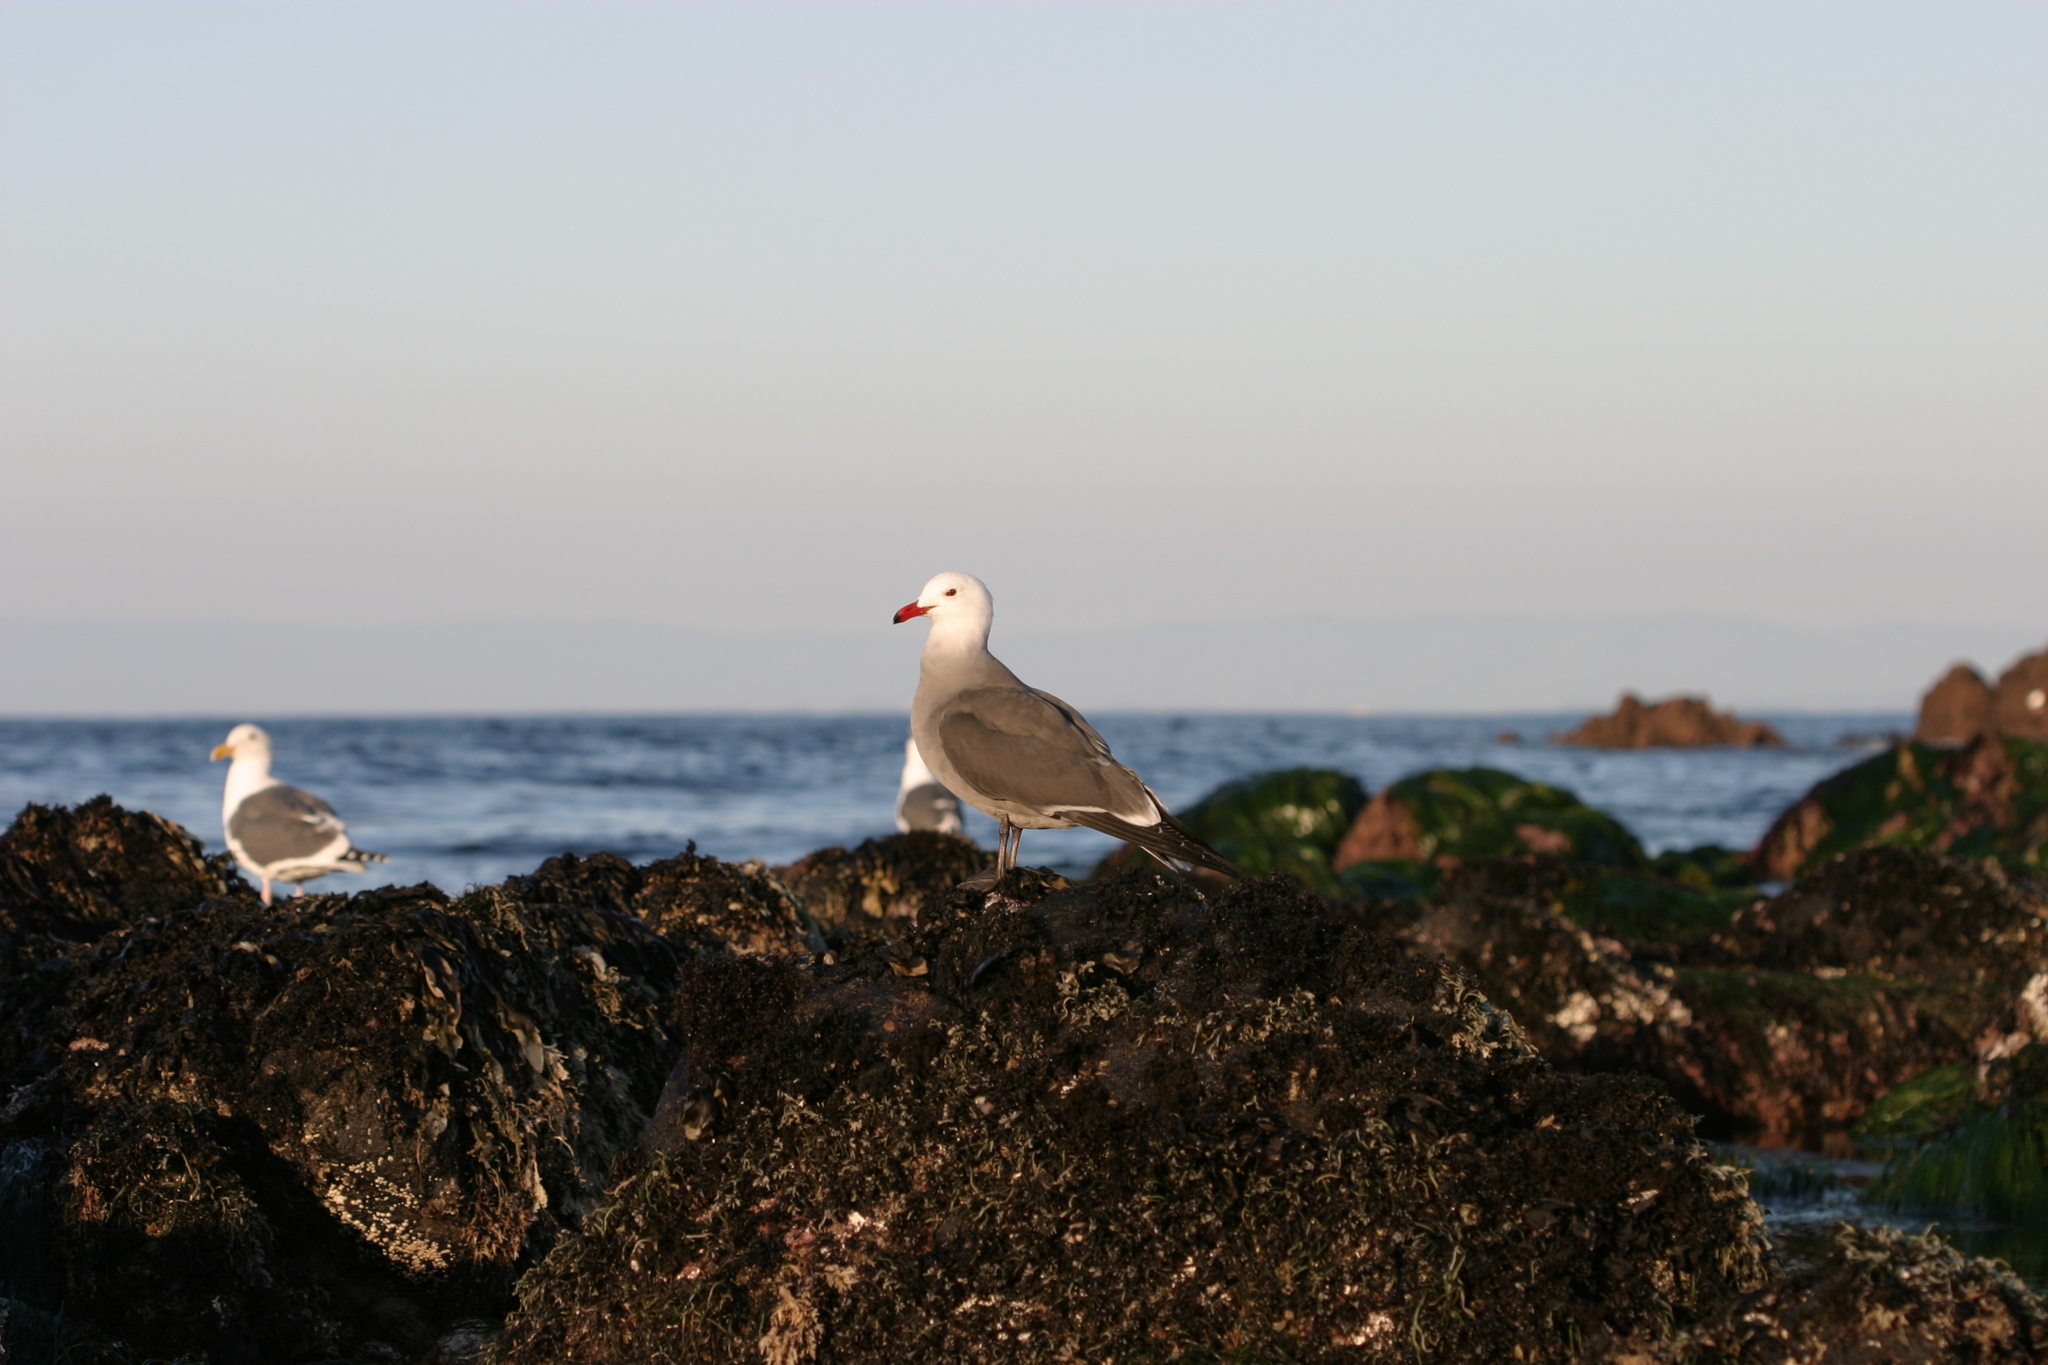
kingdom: Animalia
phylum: Chordata
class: Aves
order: Charadriiformes
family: Laridae
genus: Larus
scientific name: Larus heermanni
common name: Heermann's gull
